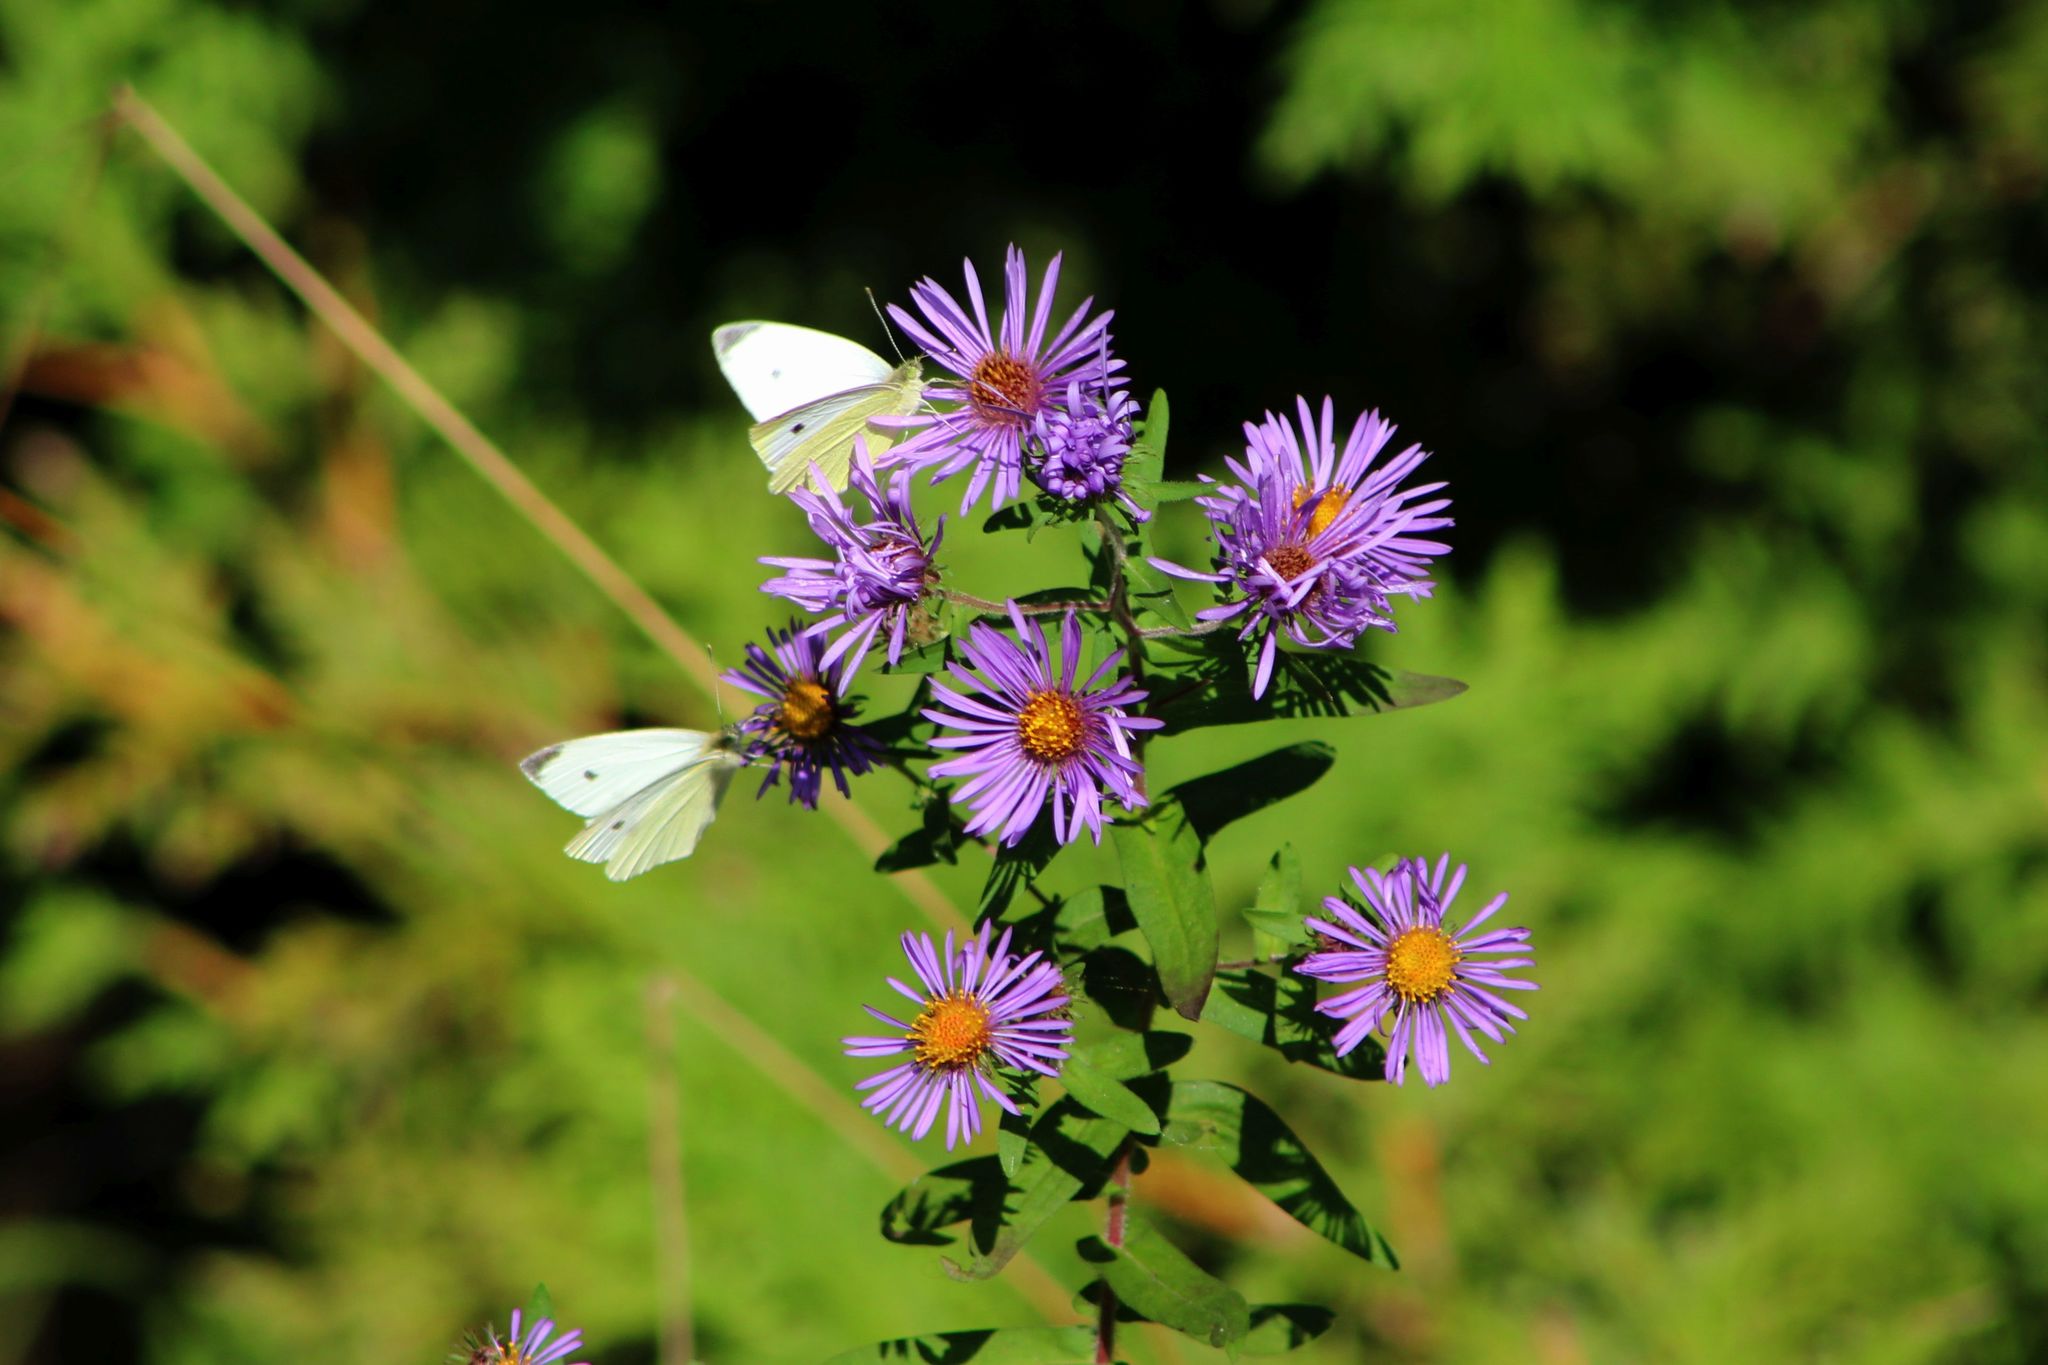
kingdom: Animalia
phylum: Arthropoda
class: Insecta
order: Lepidoptera
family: Pieridae
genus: Pieris
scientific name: Pieris rapae
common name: Small white
